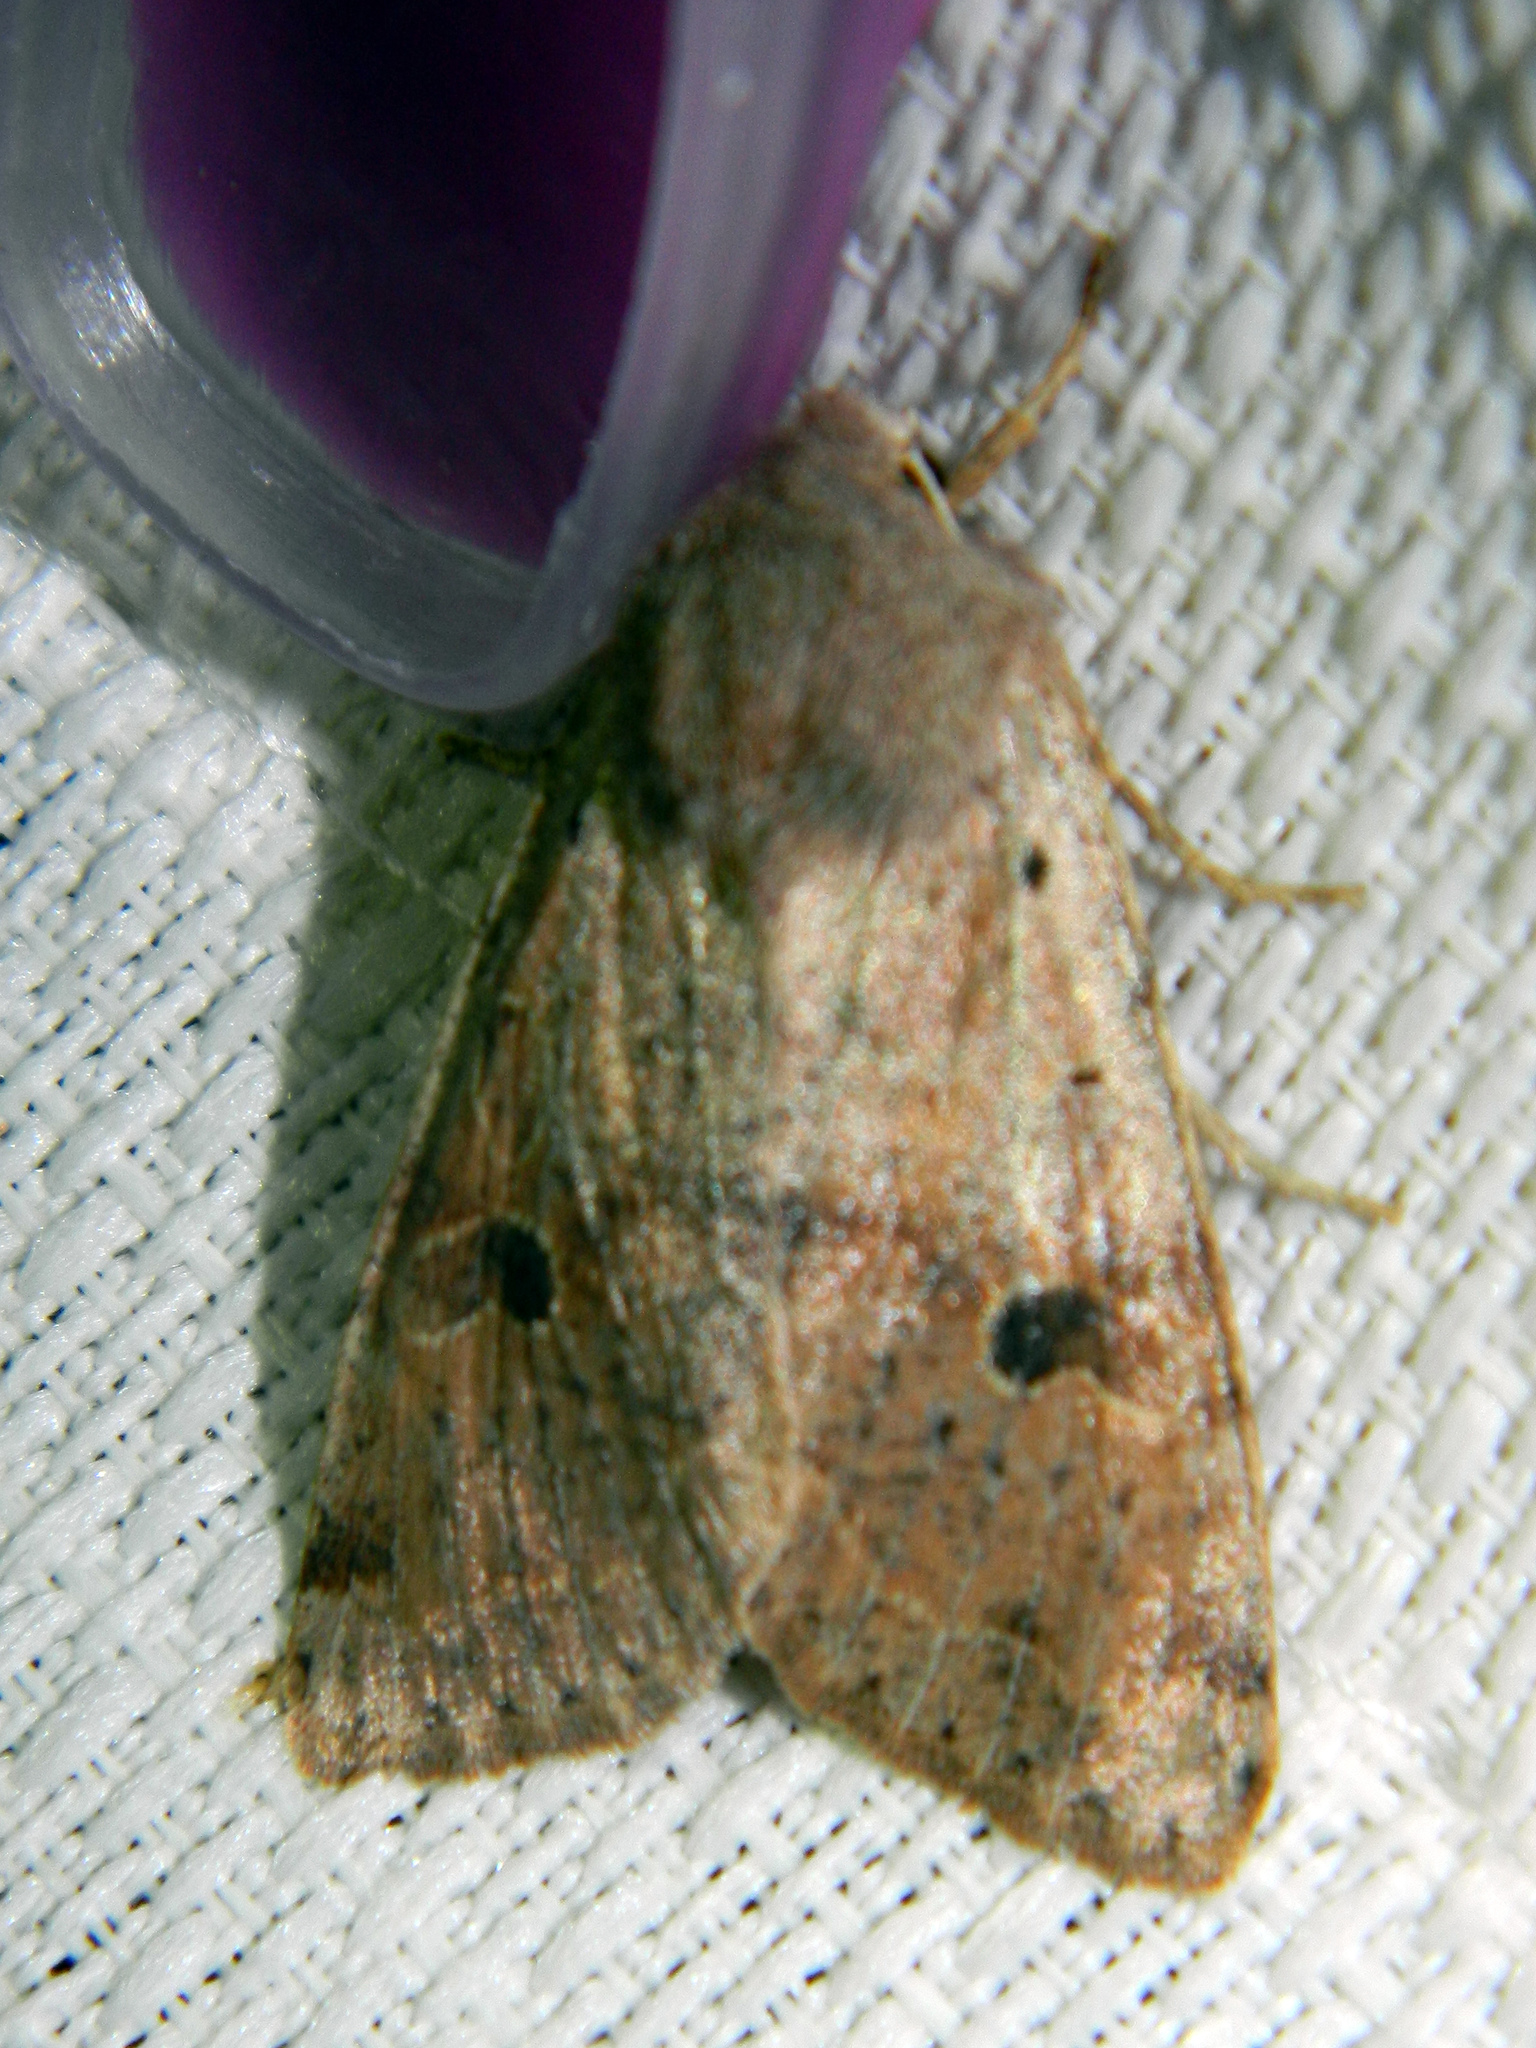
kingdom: Animalia
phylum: Arthropoda
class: Insecta
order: Lepidoptera
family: Noctuidae
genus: Orthosia
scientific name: Orthosia hibisci
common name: Green fruitworm
